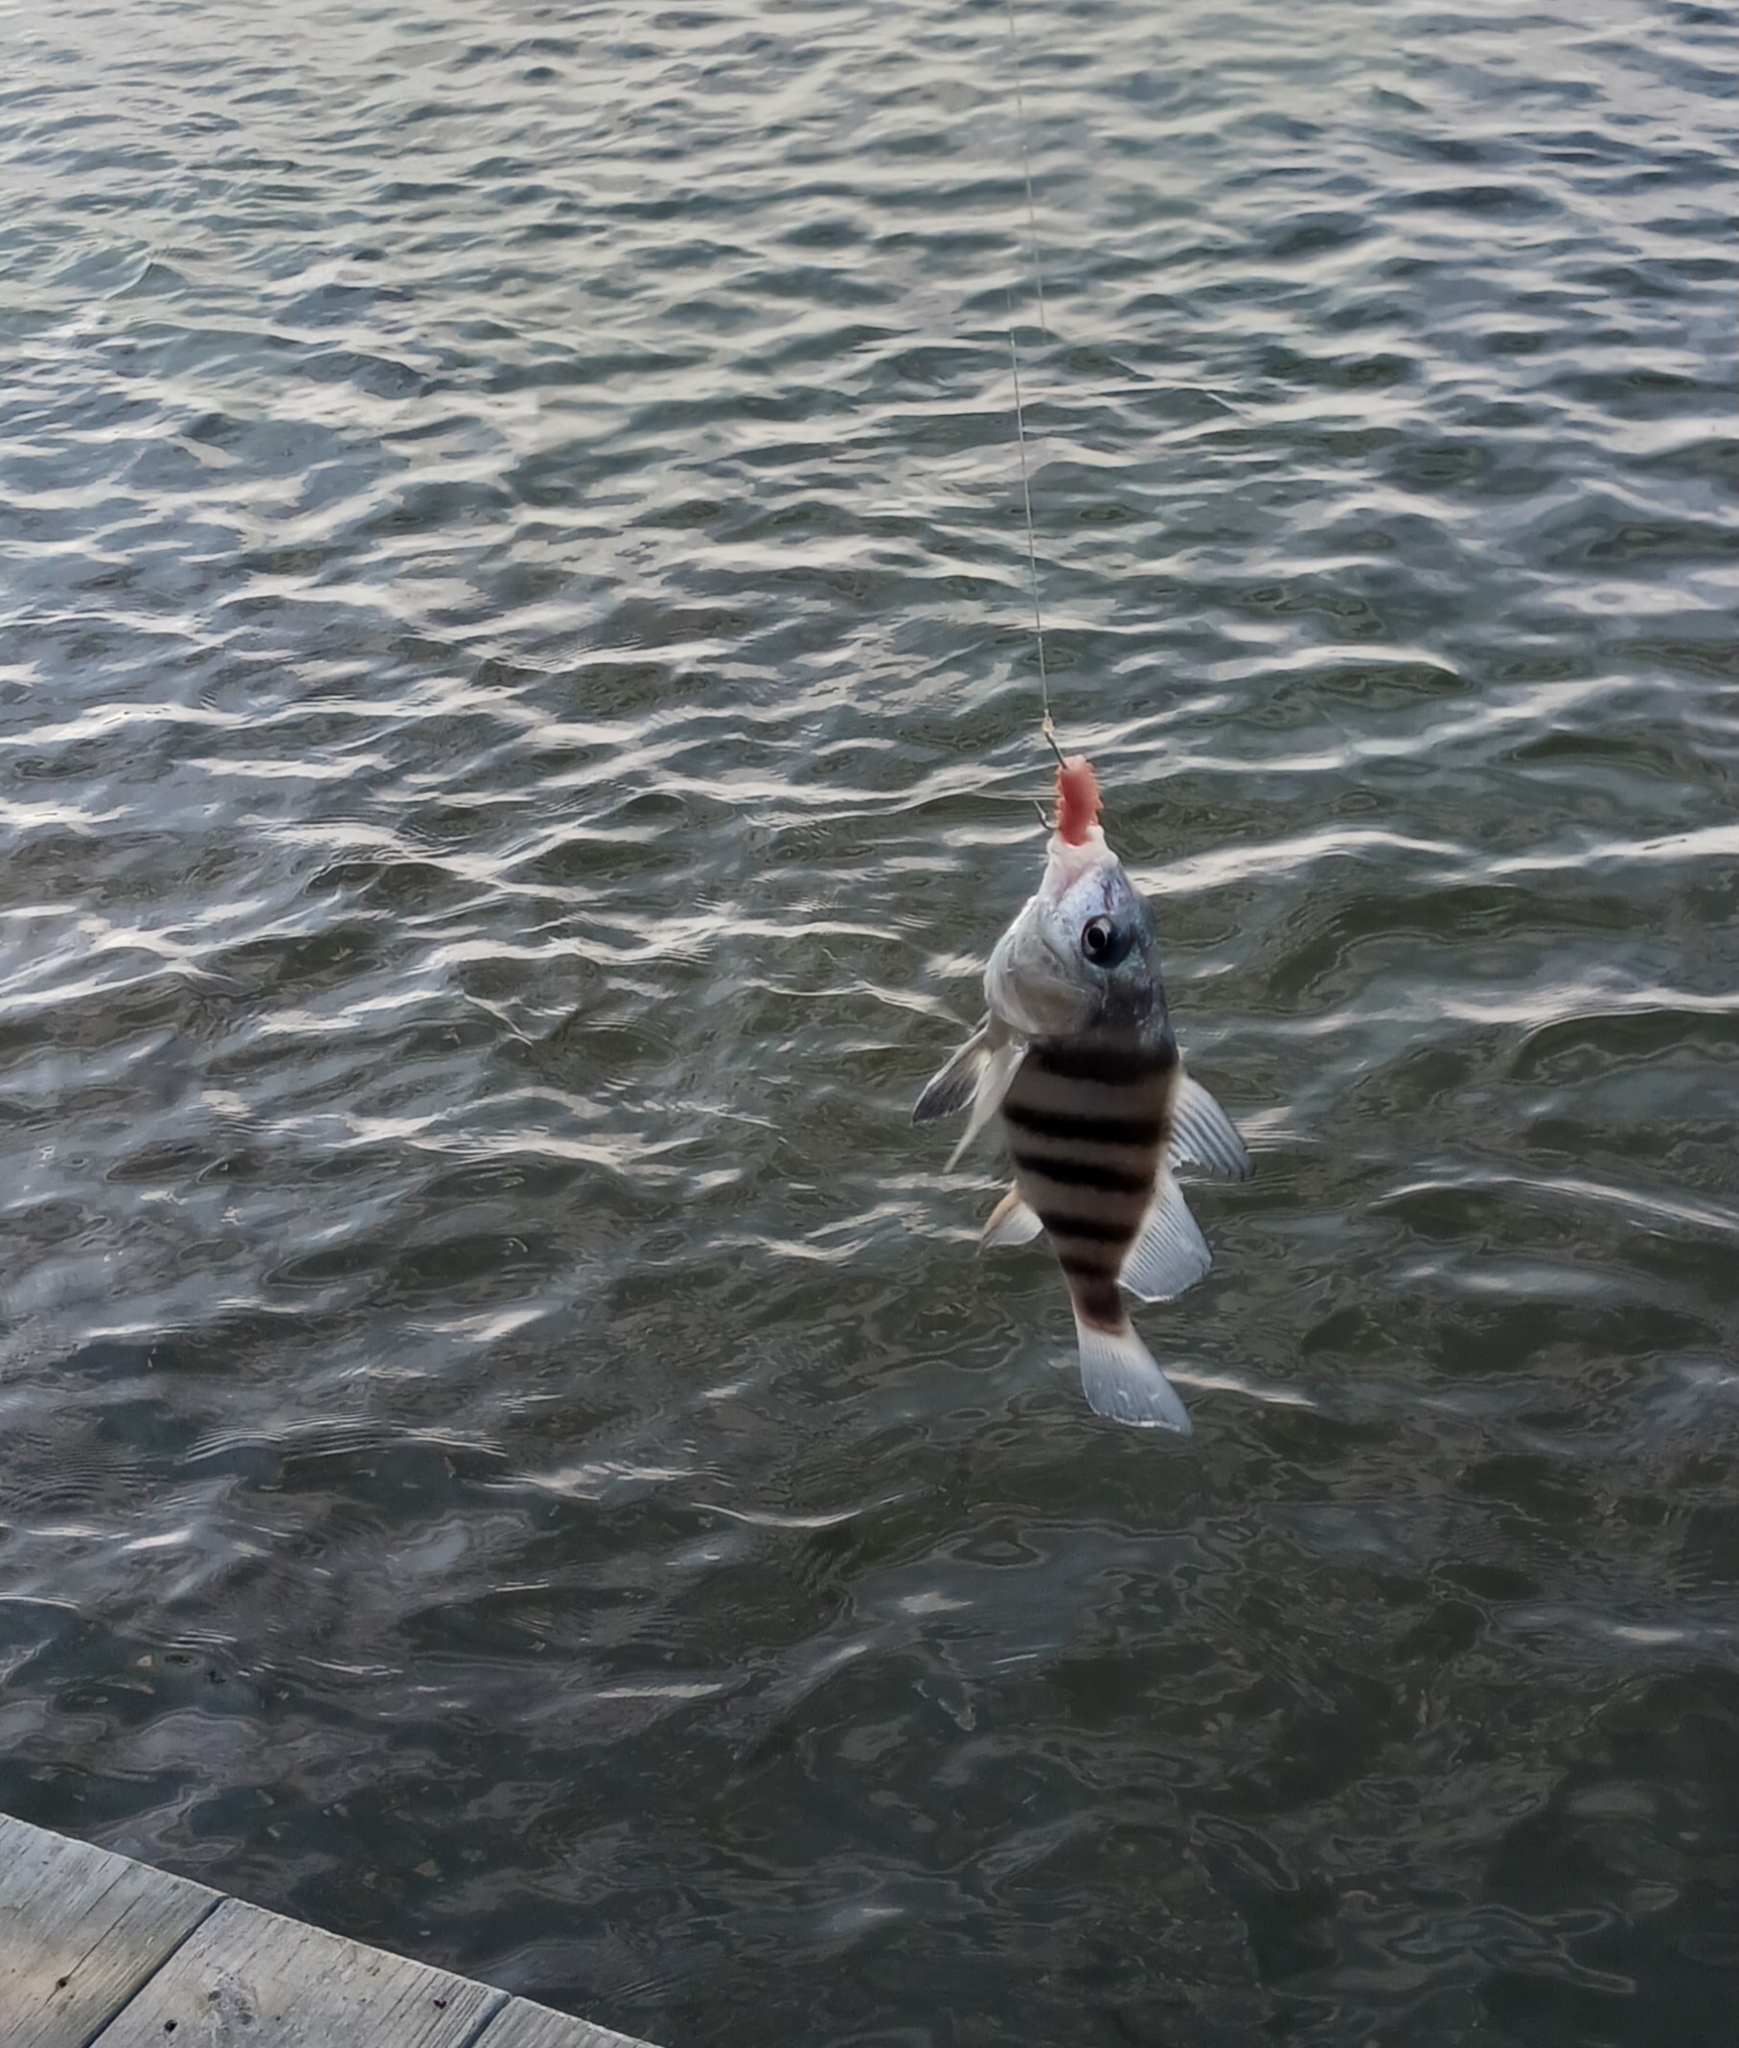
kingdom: Animalia
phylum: Chordata
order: Perciformes
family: Sciaenidae
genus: Pogonias
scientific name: Pogonias cromis
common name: Black drum
